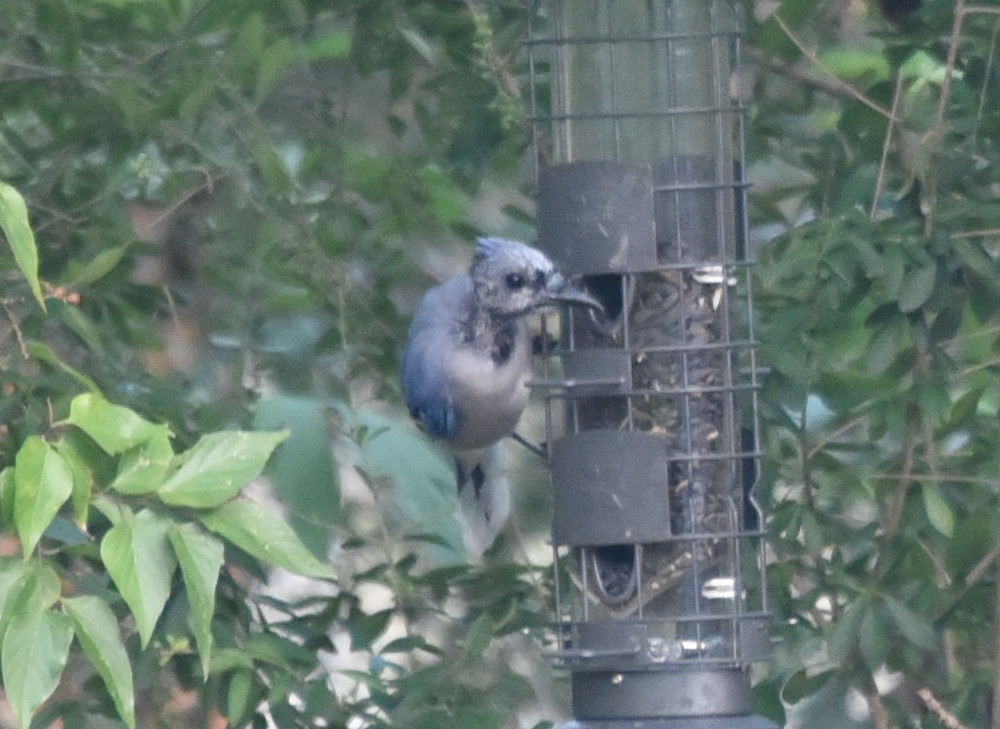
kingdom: Animalia
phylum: Chordata
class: Aves
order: Passeriformes
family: Corvidae
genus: Cyanocitta
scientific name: Cyanocitta cristata
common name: Blue jay
